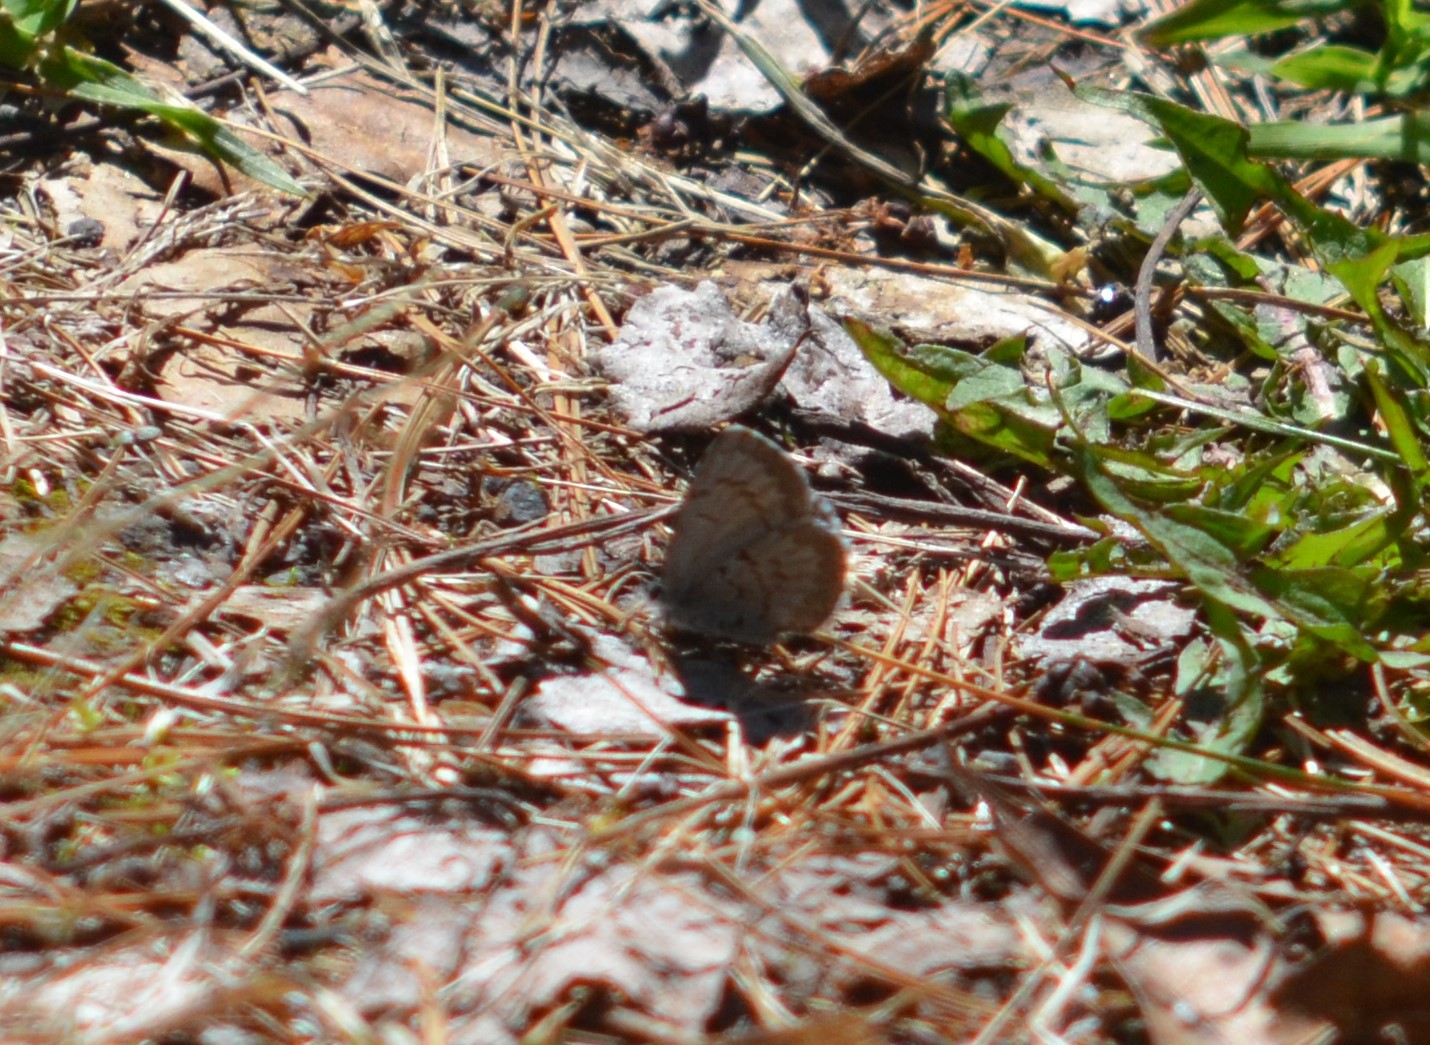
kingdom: Animalia
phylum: Arthropoda
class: Insecta
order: Lepidoptera
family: Lycaenidae
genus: Celastrina
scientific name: Celastrina ladon
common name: Spring azure
